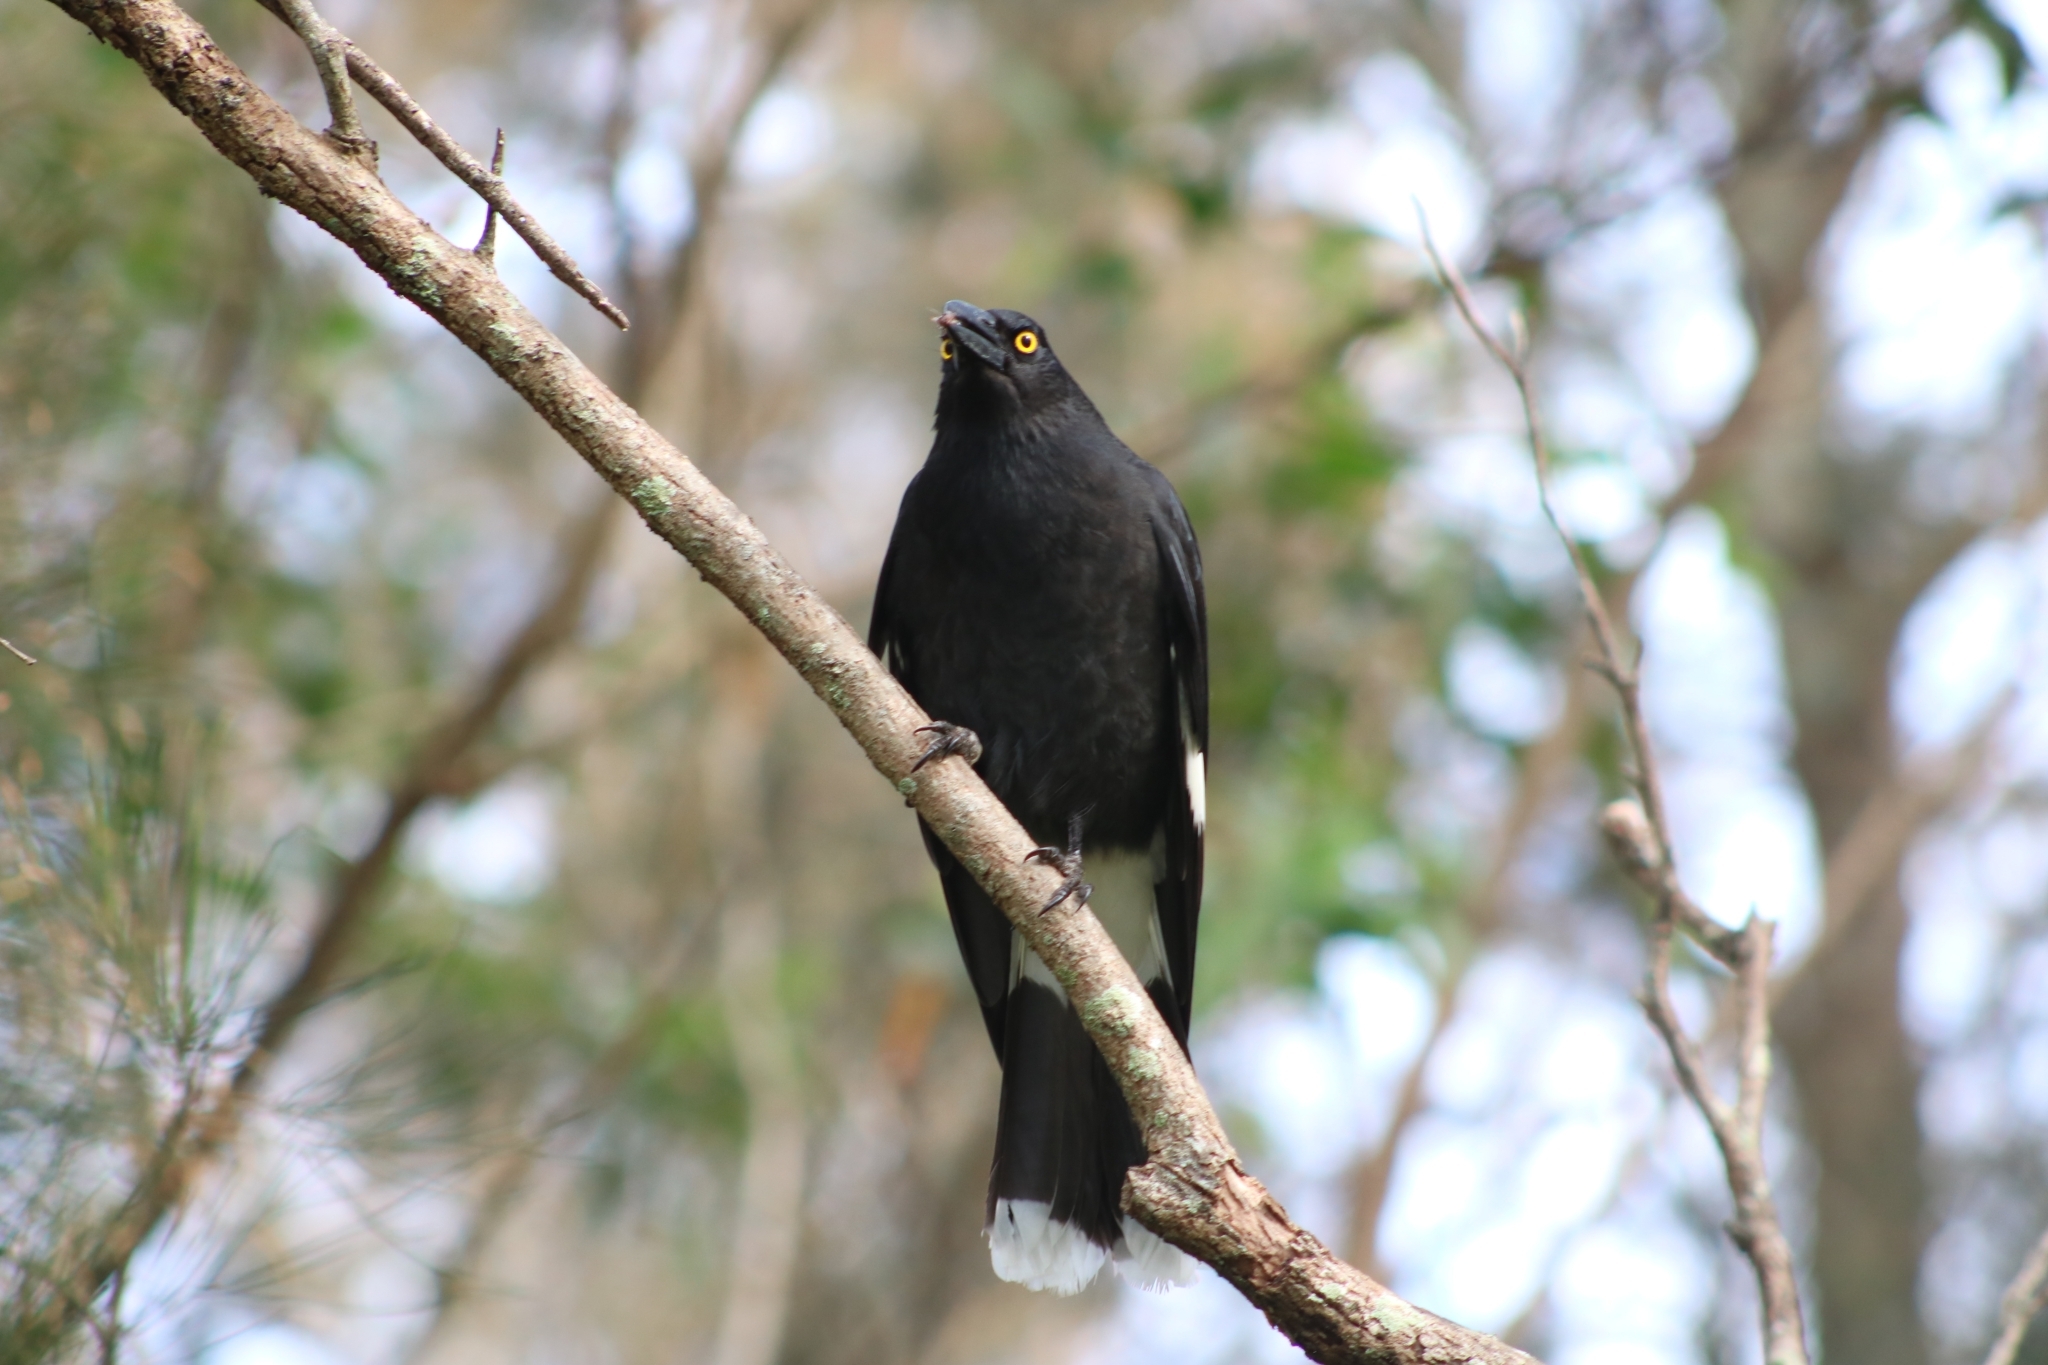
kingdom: Animalia
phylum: Chordata
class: Aves
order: Passeriformes
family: Cracticidae
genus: Strepera
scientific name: Strepera graculina
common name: Pied currawong
